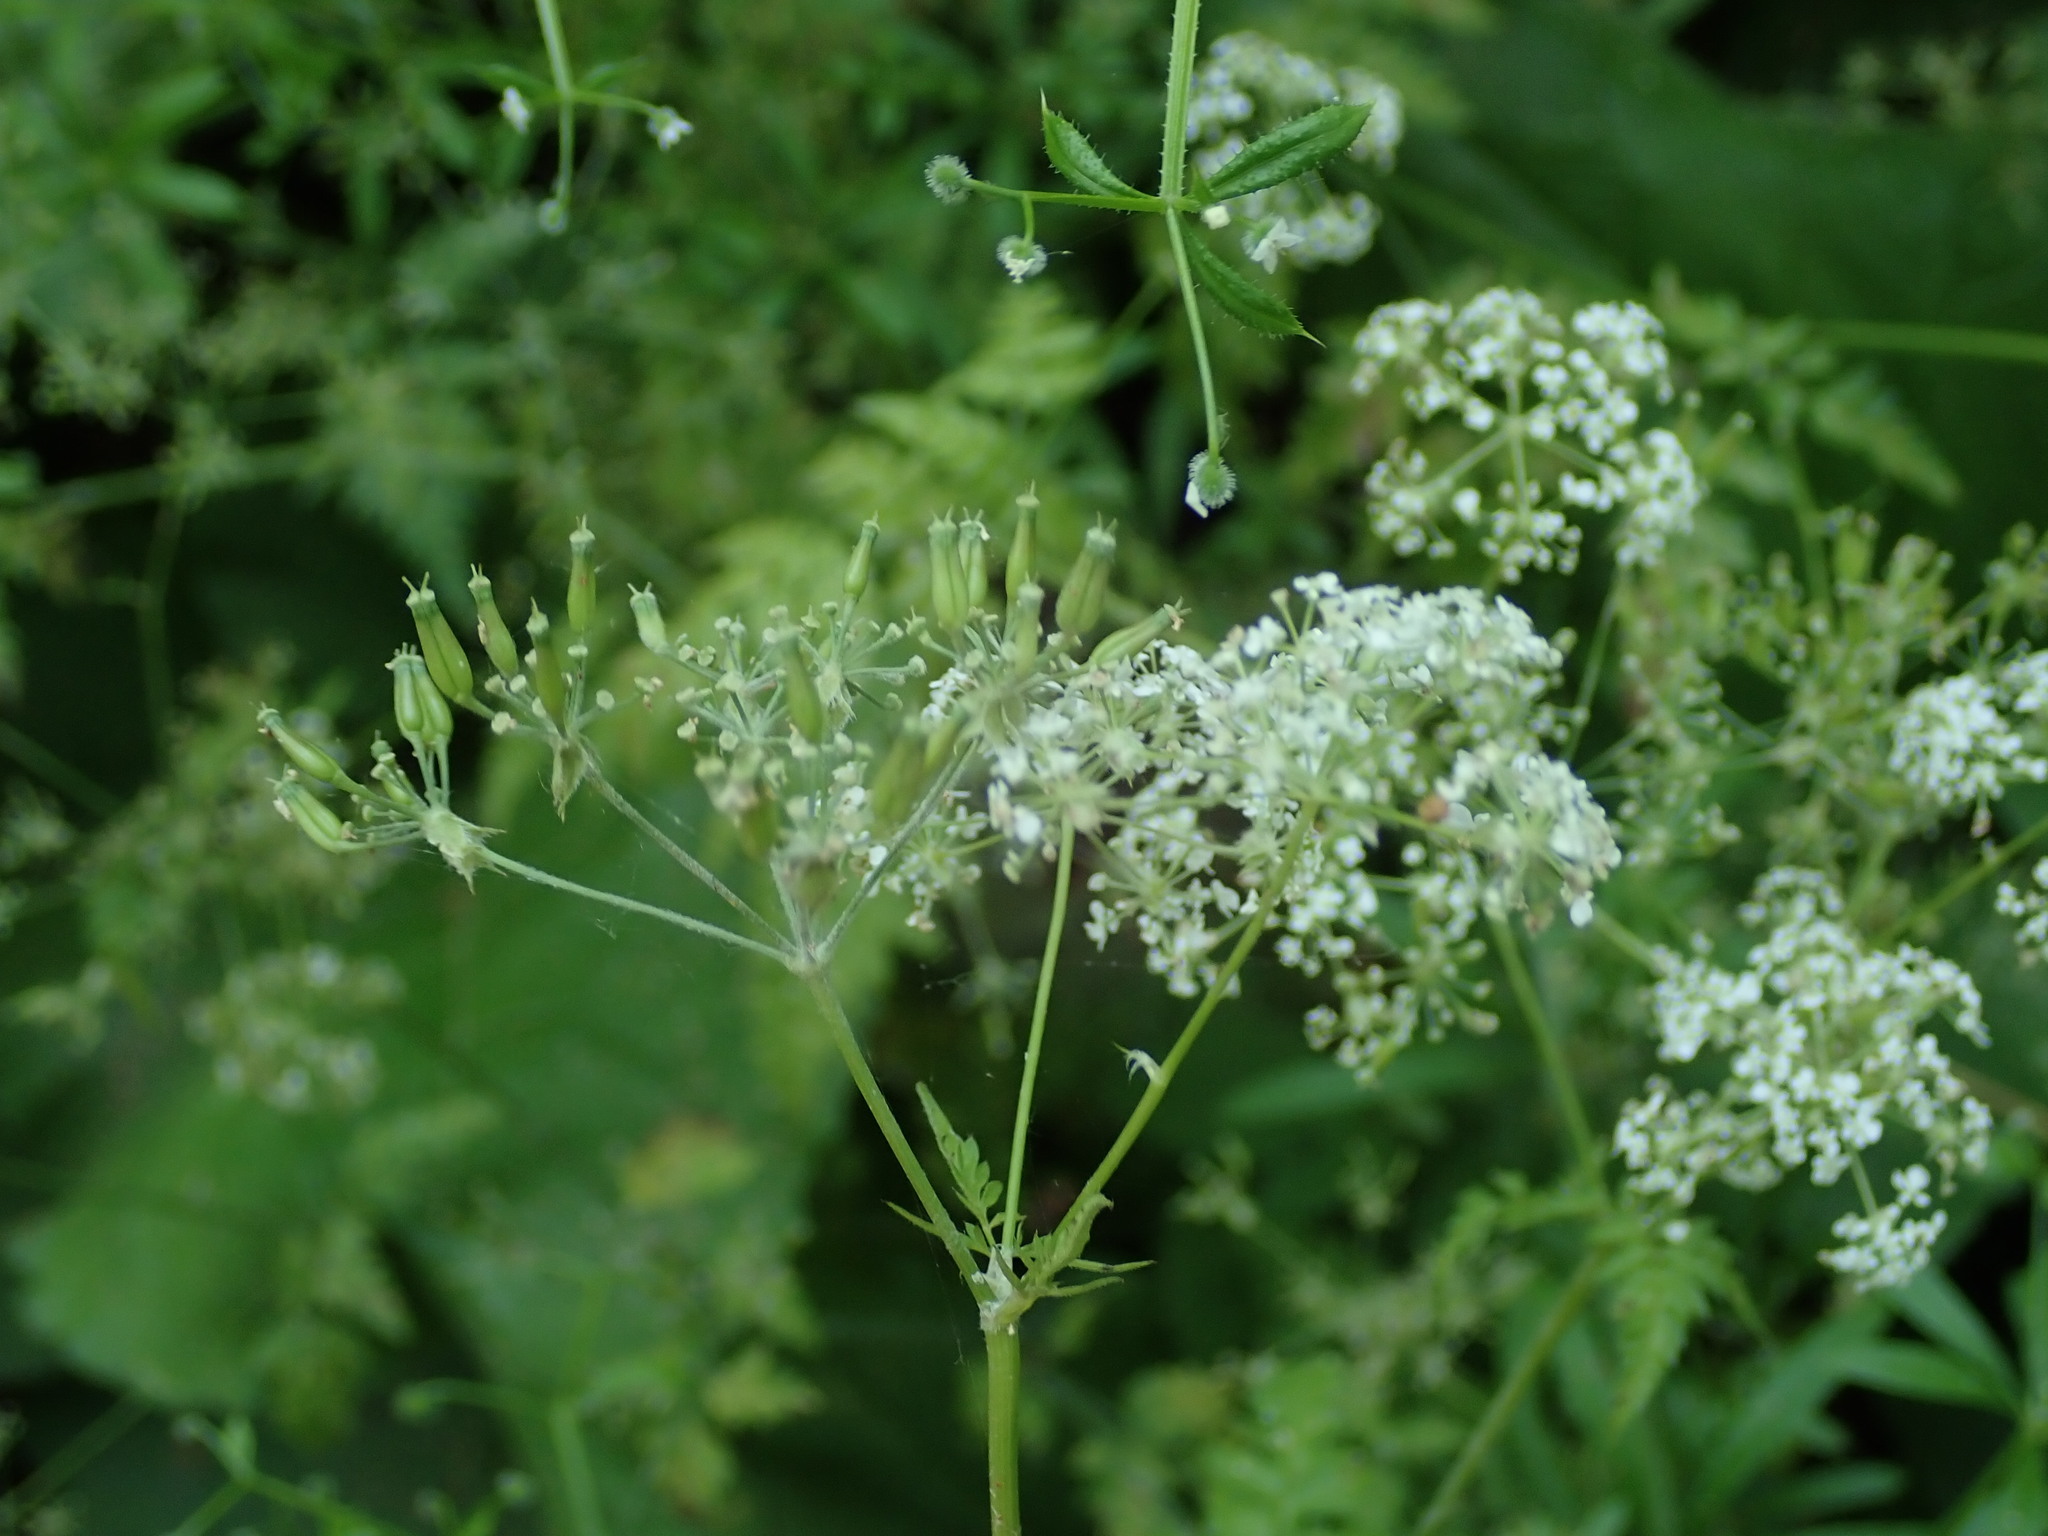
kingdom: Plantae
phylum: Tracheophyta
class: Magnoliopsida
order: Apiales
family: Apiaceae
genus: Anthriscus
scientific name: Anthriscus sylvestris
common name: Cow parsley
